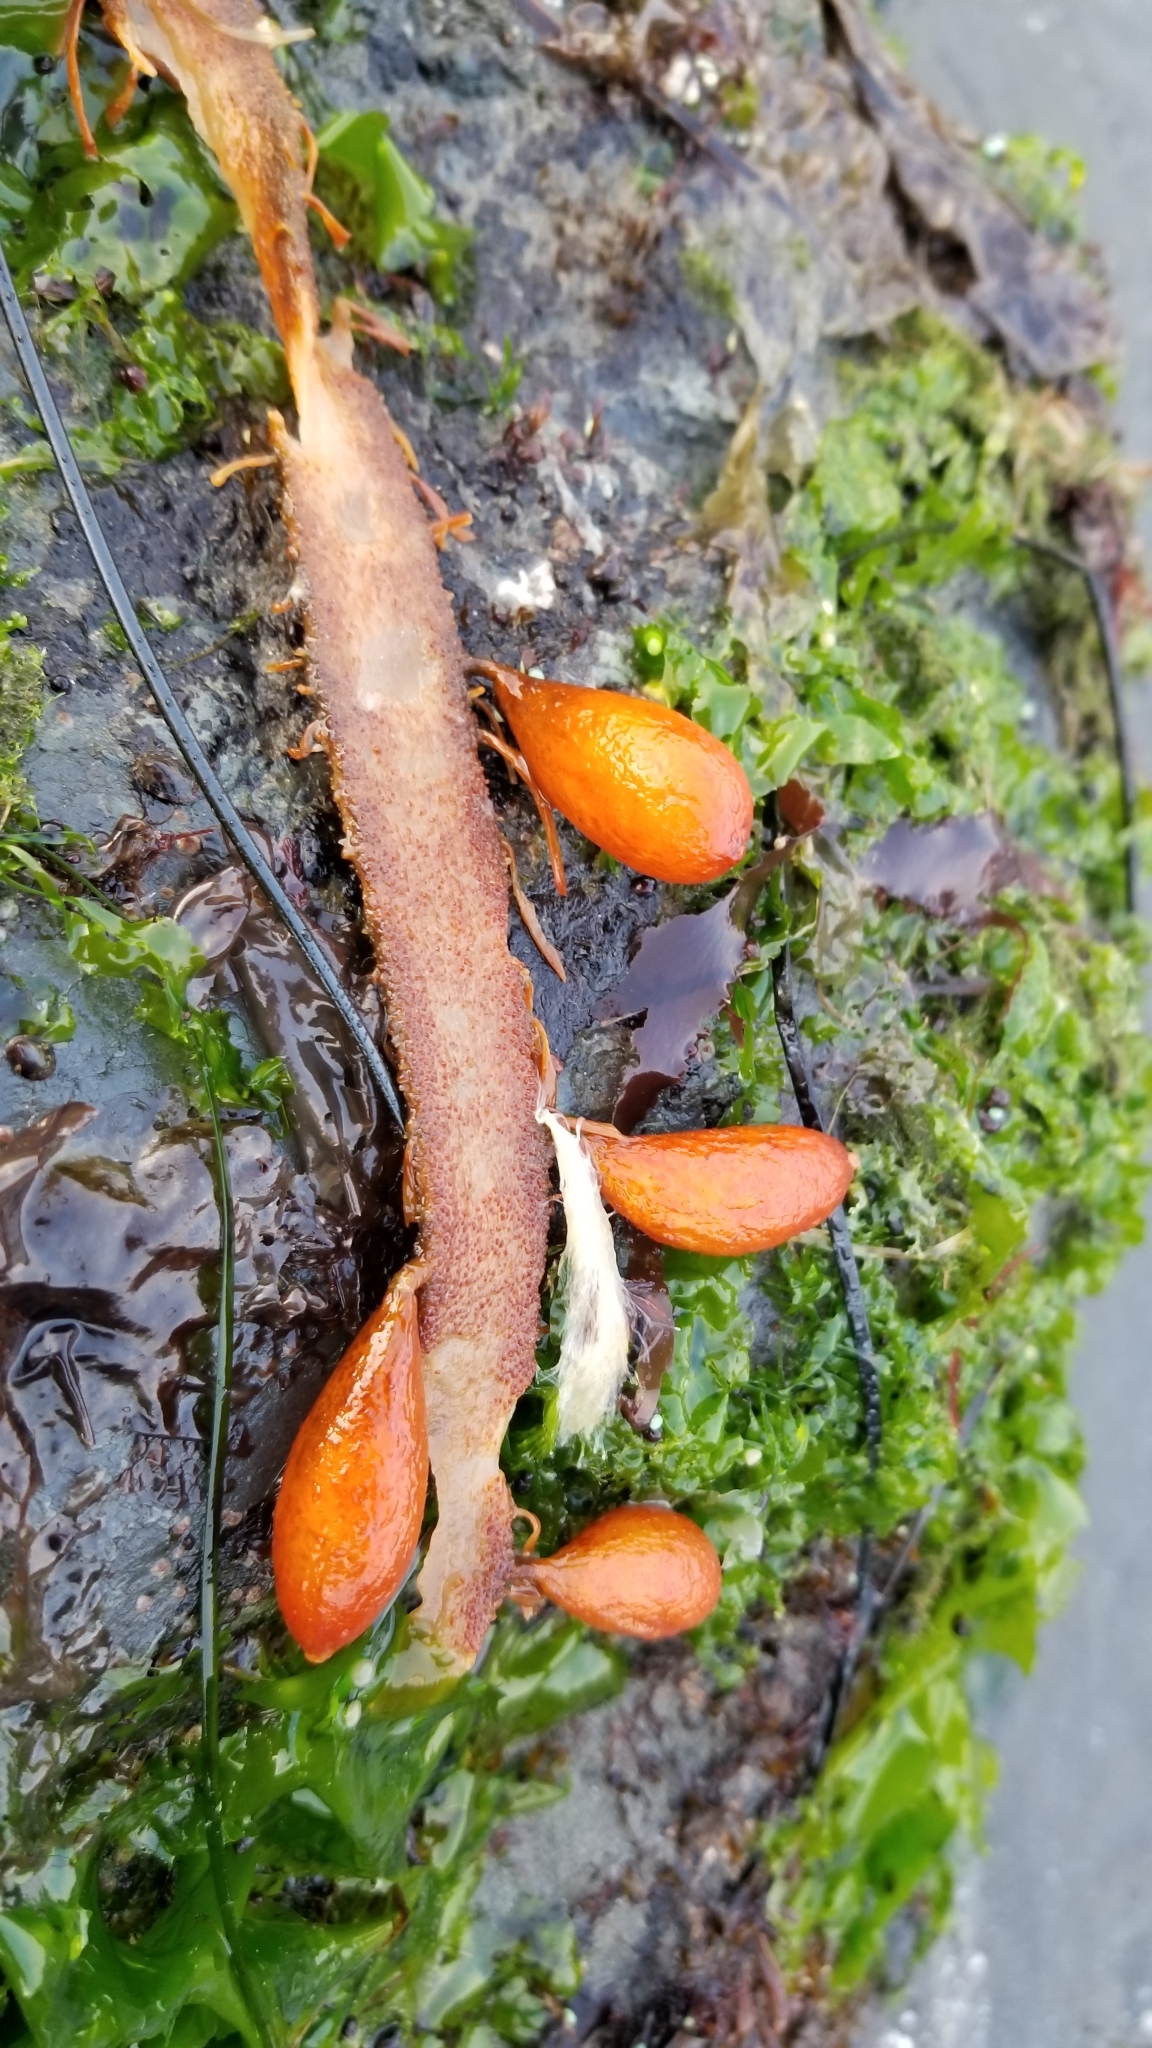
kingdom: Chromista
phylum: Ochrophyta
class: Phaeophyceae
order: Laminariales
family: Lessoniaceae
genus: Egregia
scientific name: Egregia menziesii
